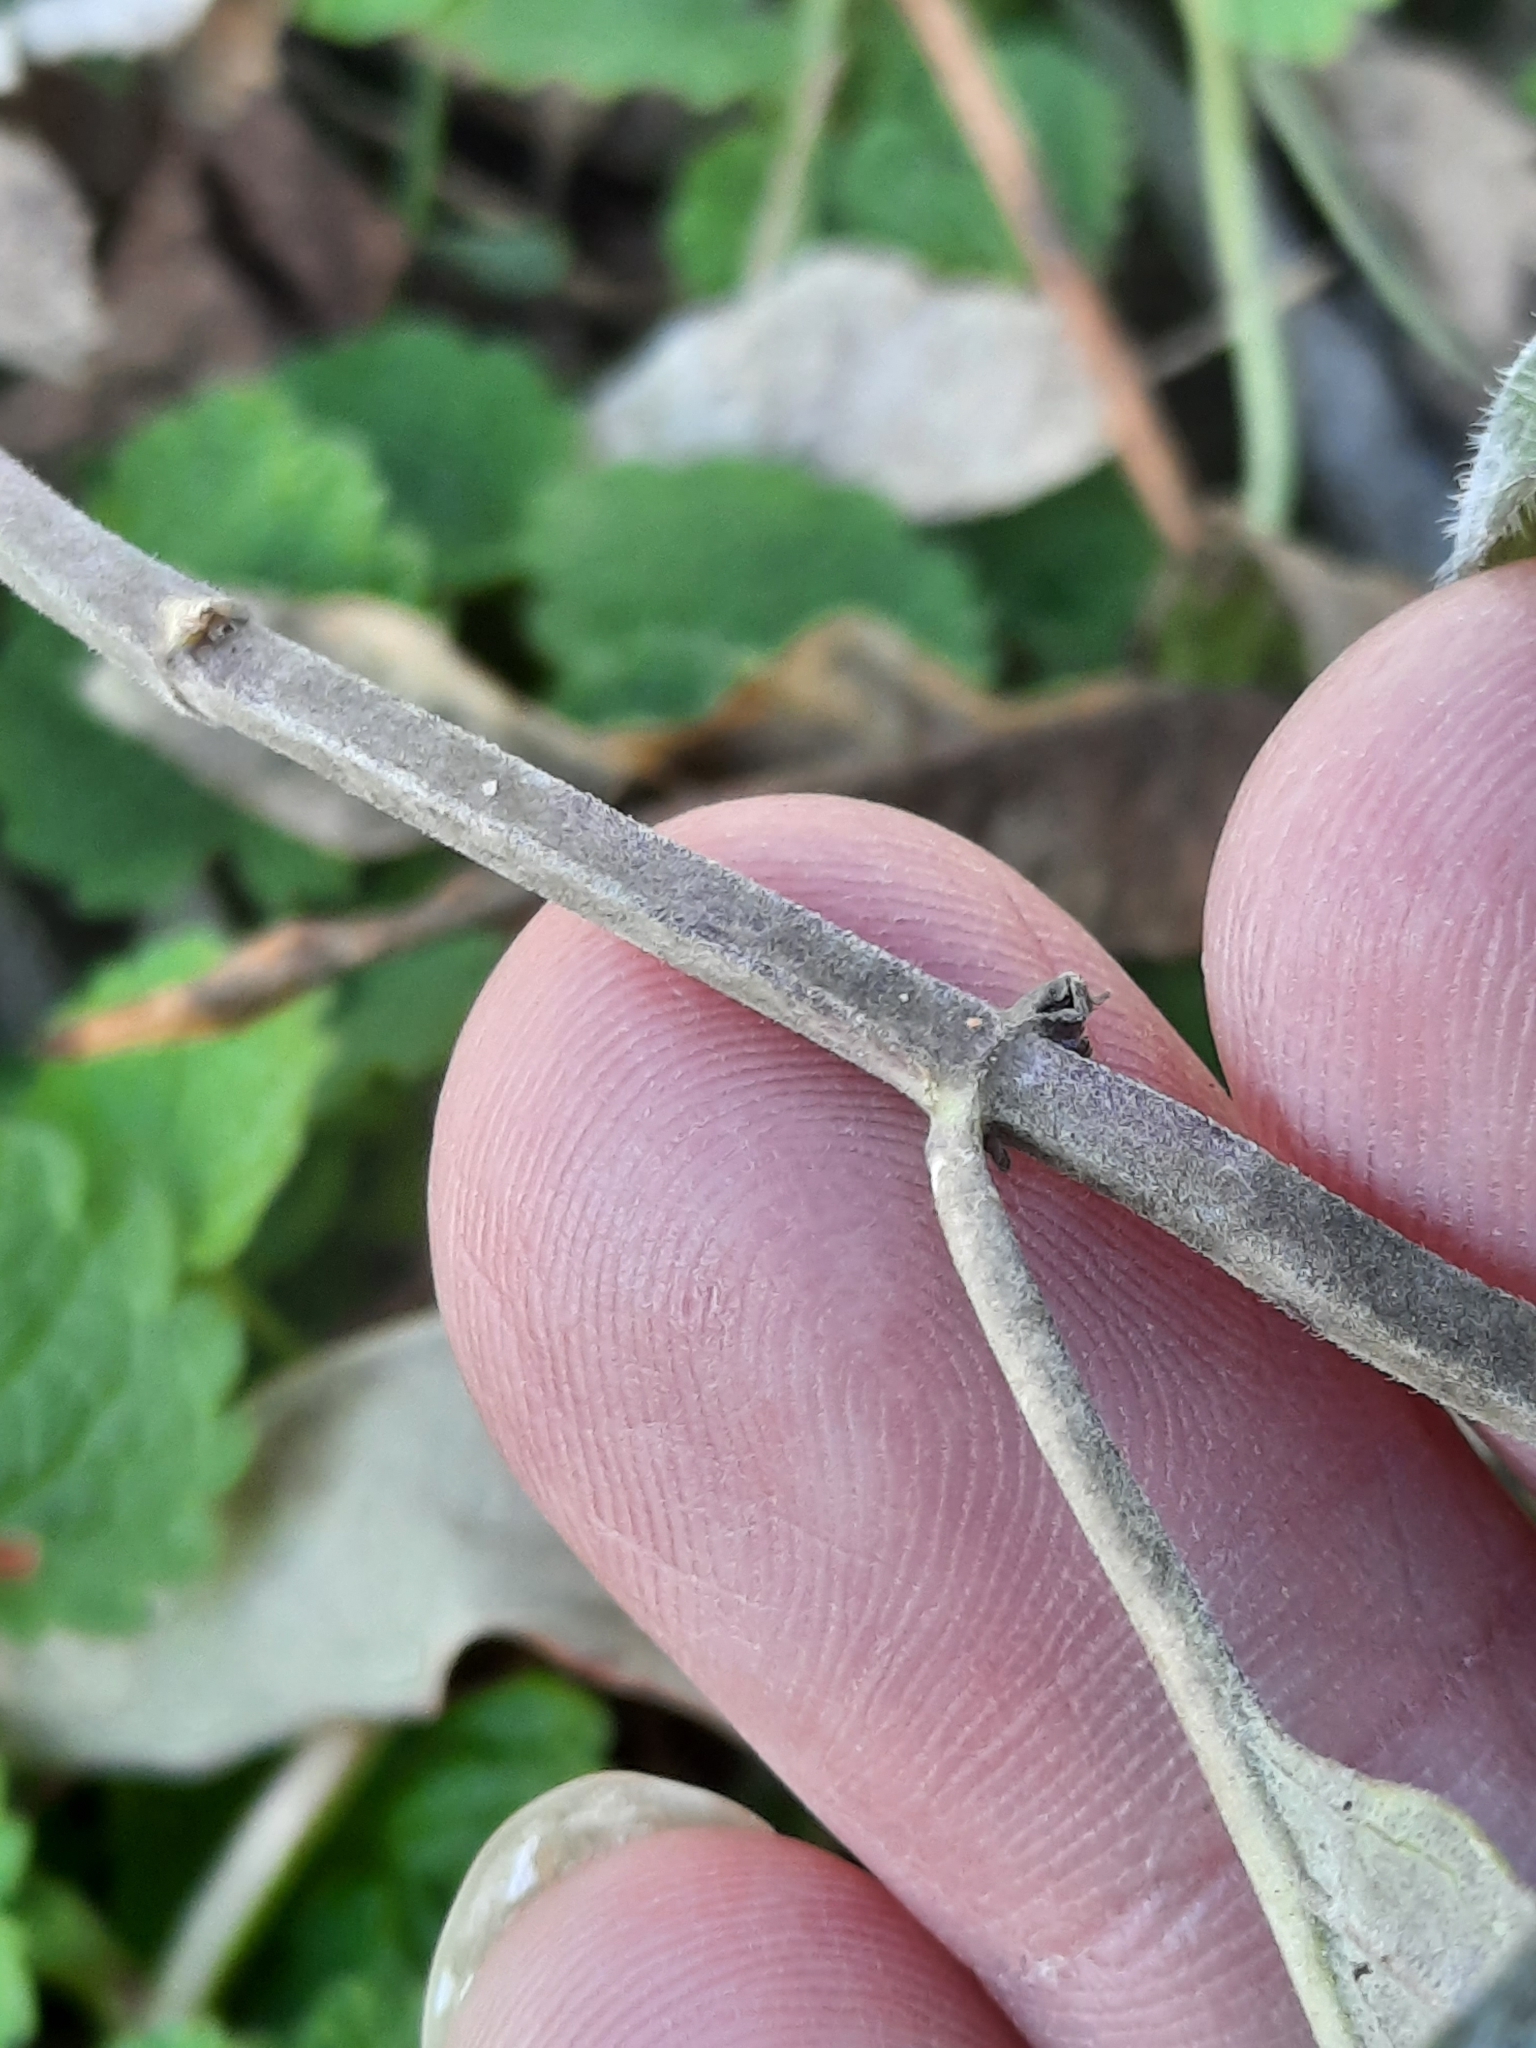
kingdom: Plantae
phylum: Tracheophyta
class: Magnoliopsida
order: Lamiales
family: Lamiaceae
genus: Monarda
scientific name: Monarda fistulosa
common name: Purple beebalm
